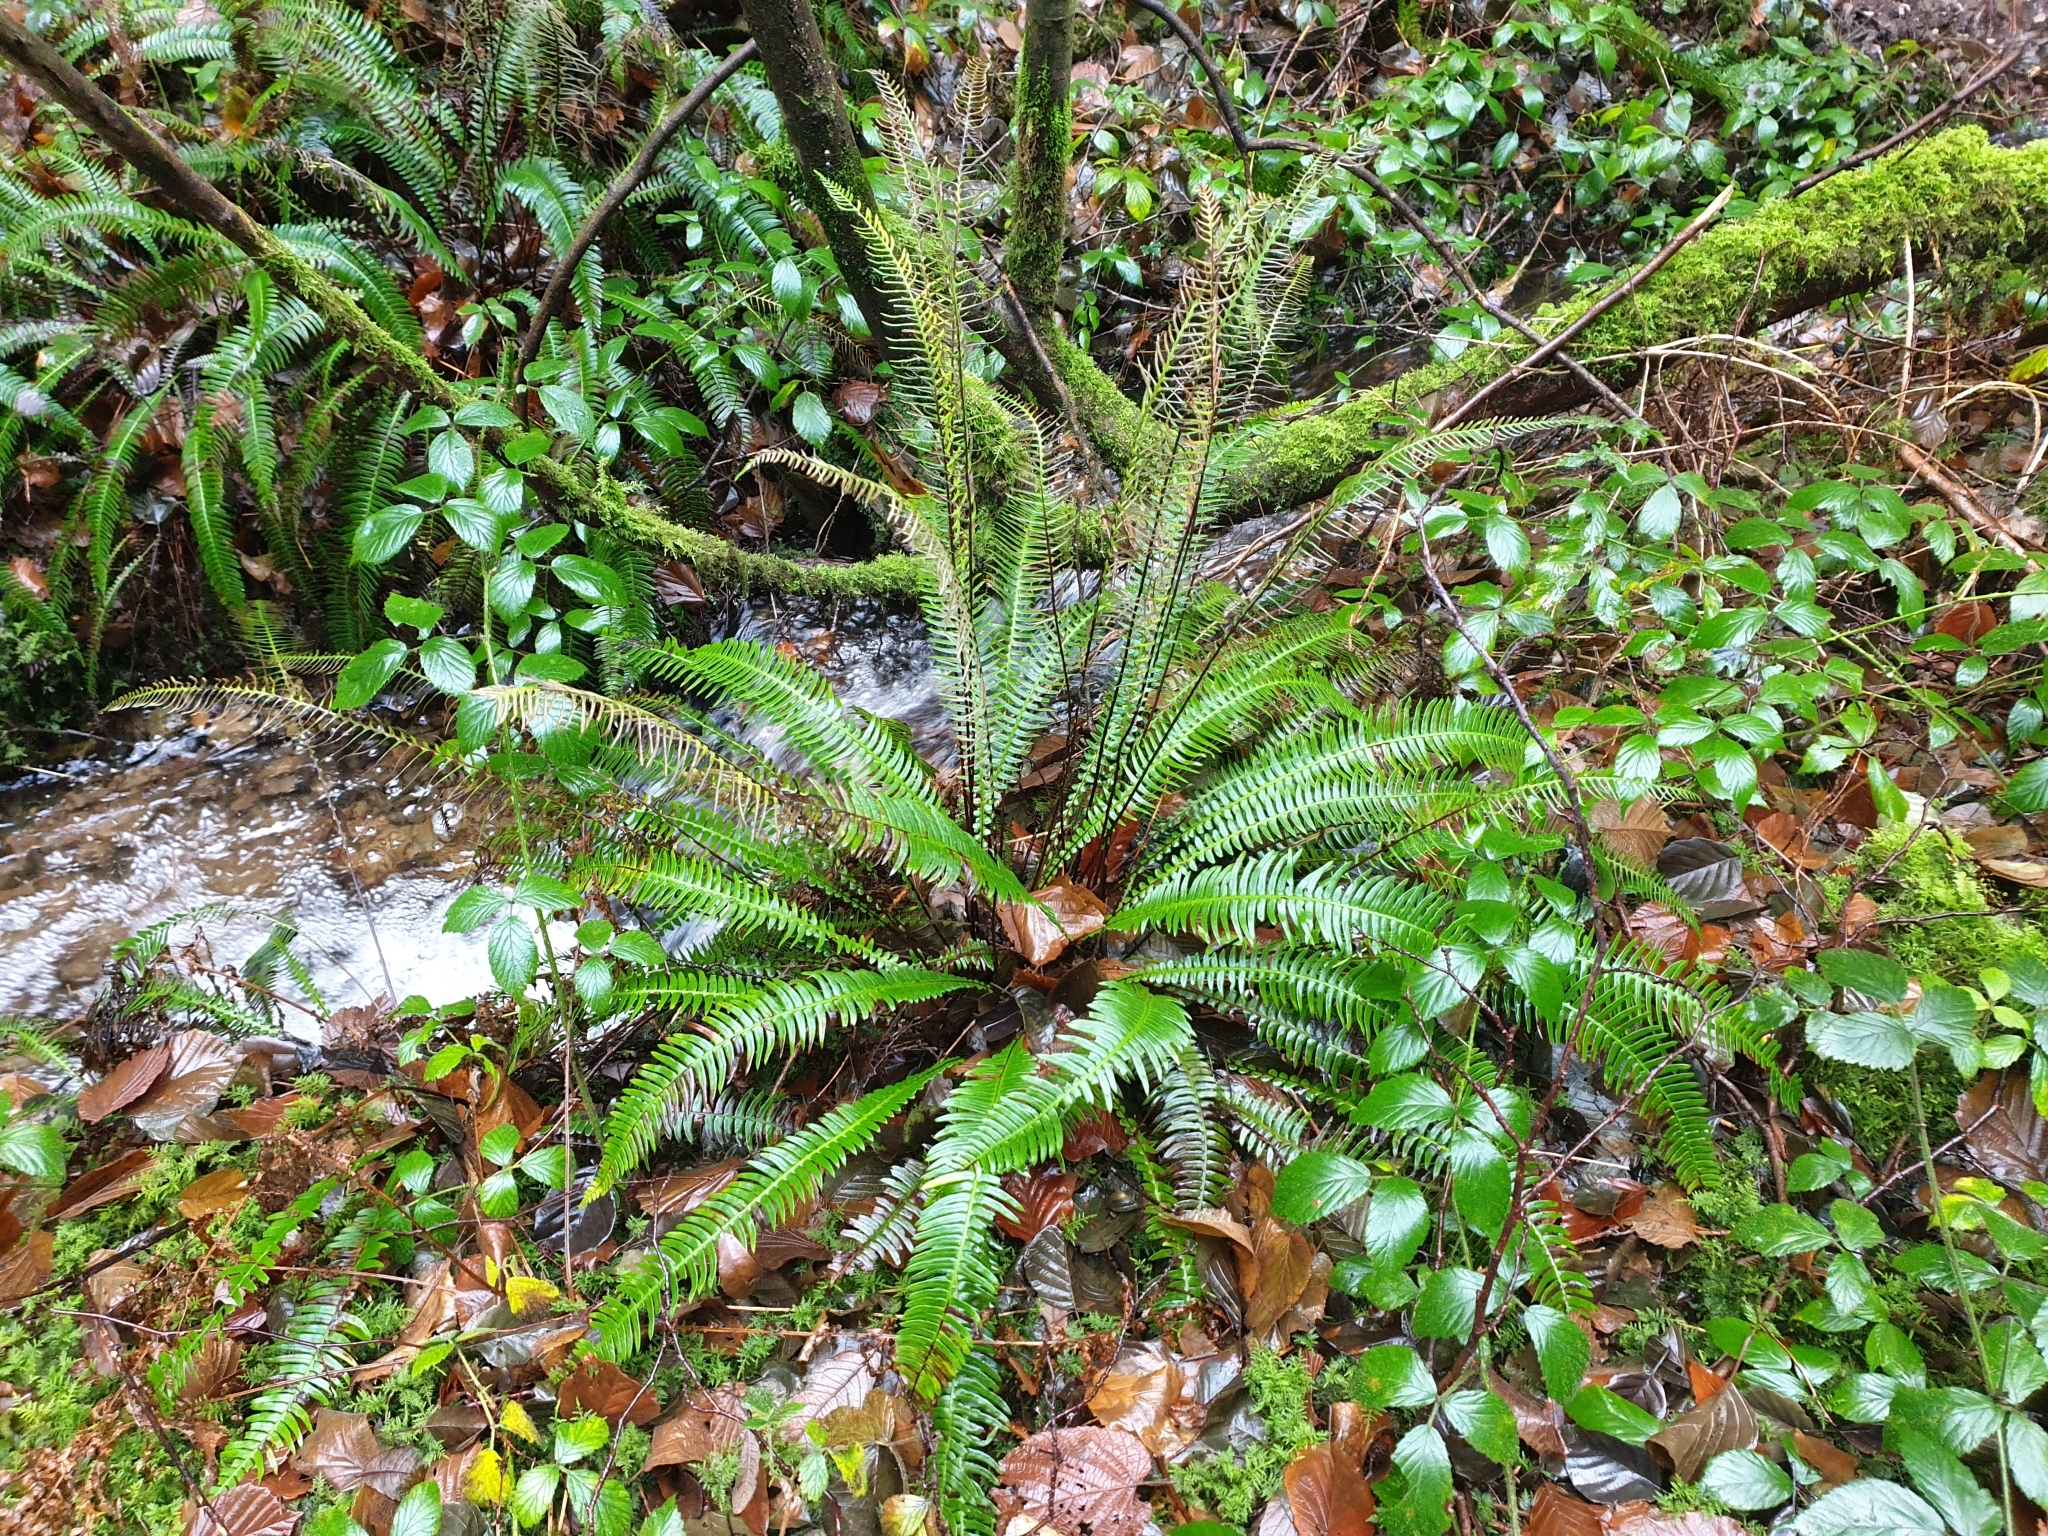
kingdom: Plantae
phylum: Tracheophyta
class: Polypodiopsida
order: Polypodiales
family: Blechnaceae
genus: Struthiopteris
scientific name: Struthiopteris spicant
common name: Deer fern
